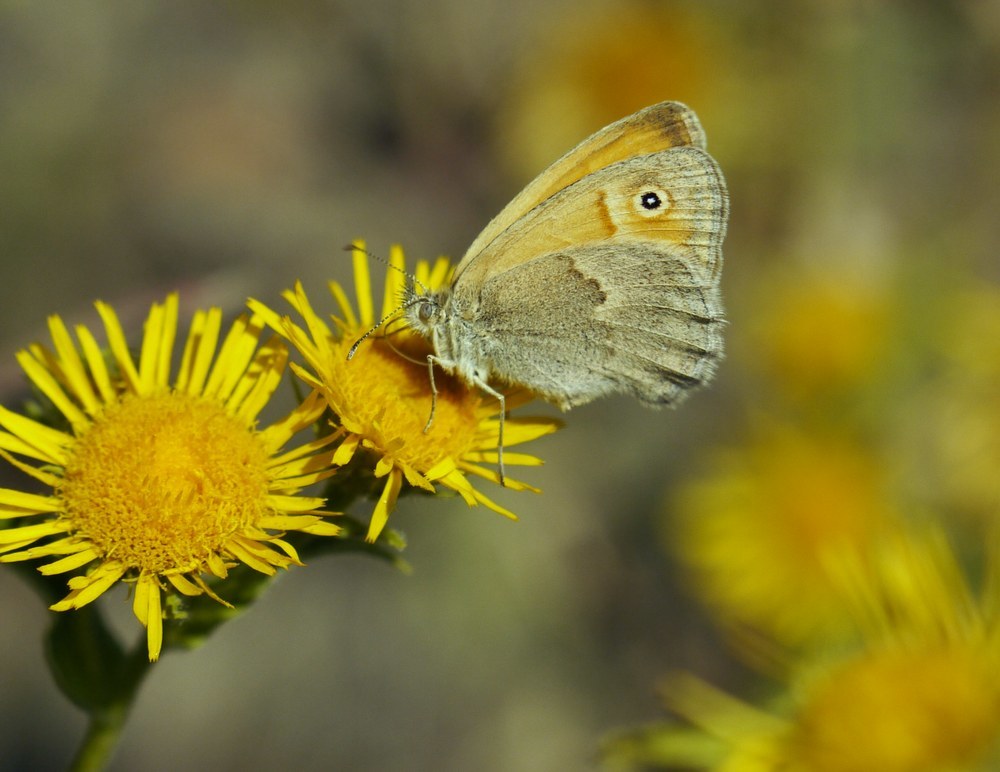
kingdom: Animalia
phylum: Arthropoda
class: Insecta
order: Lepidoptera
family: Nymphalidae
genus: Coenonympha
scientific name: Coenonympha pamphilus
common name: Small heath
